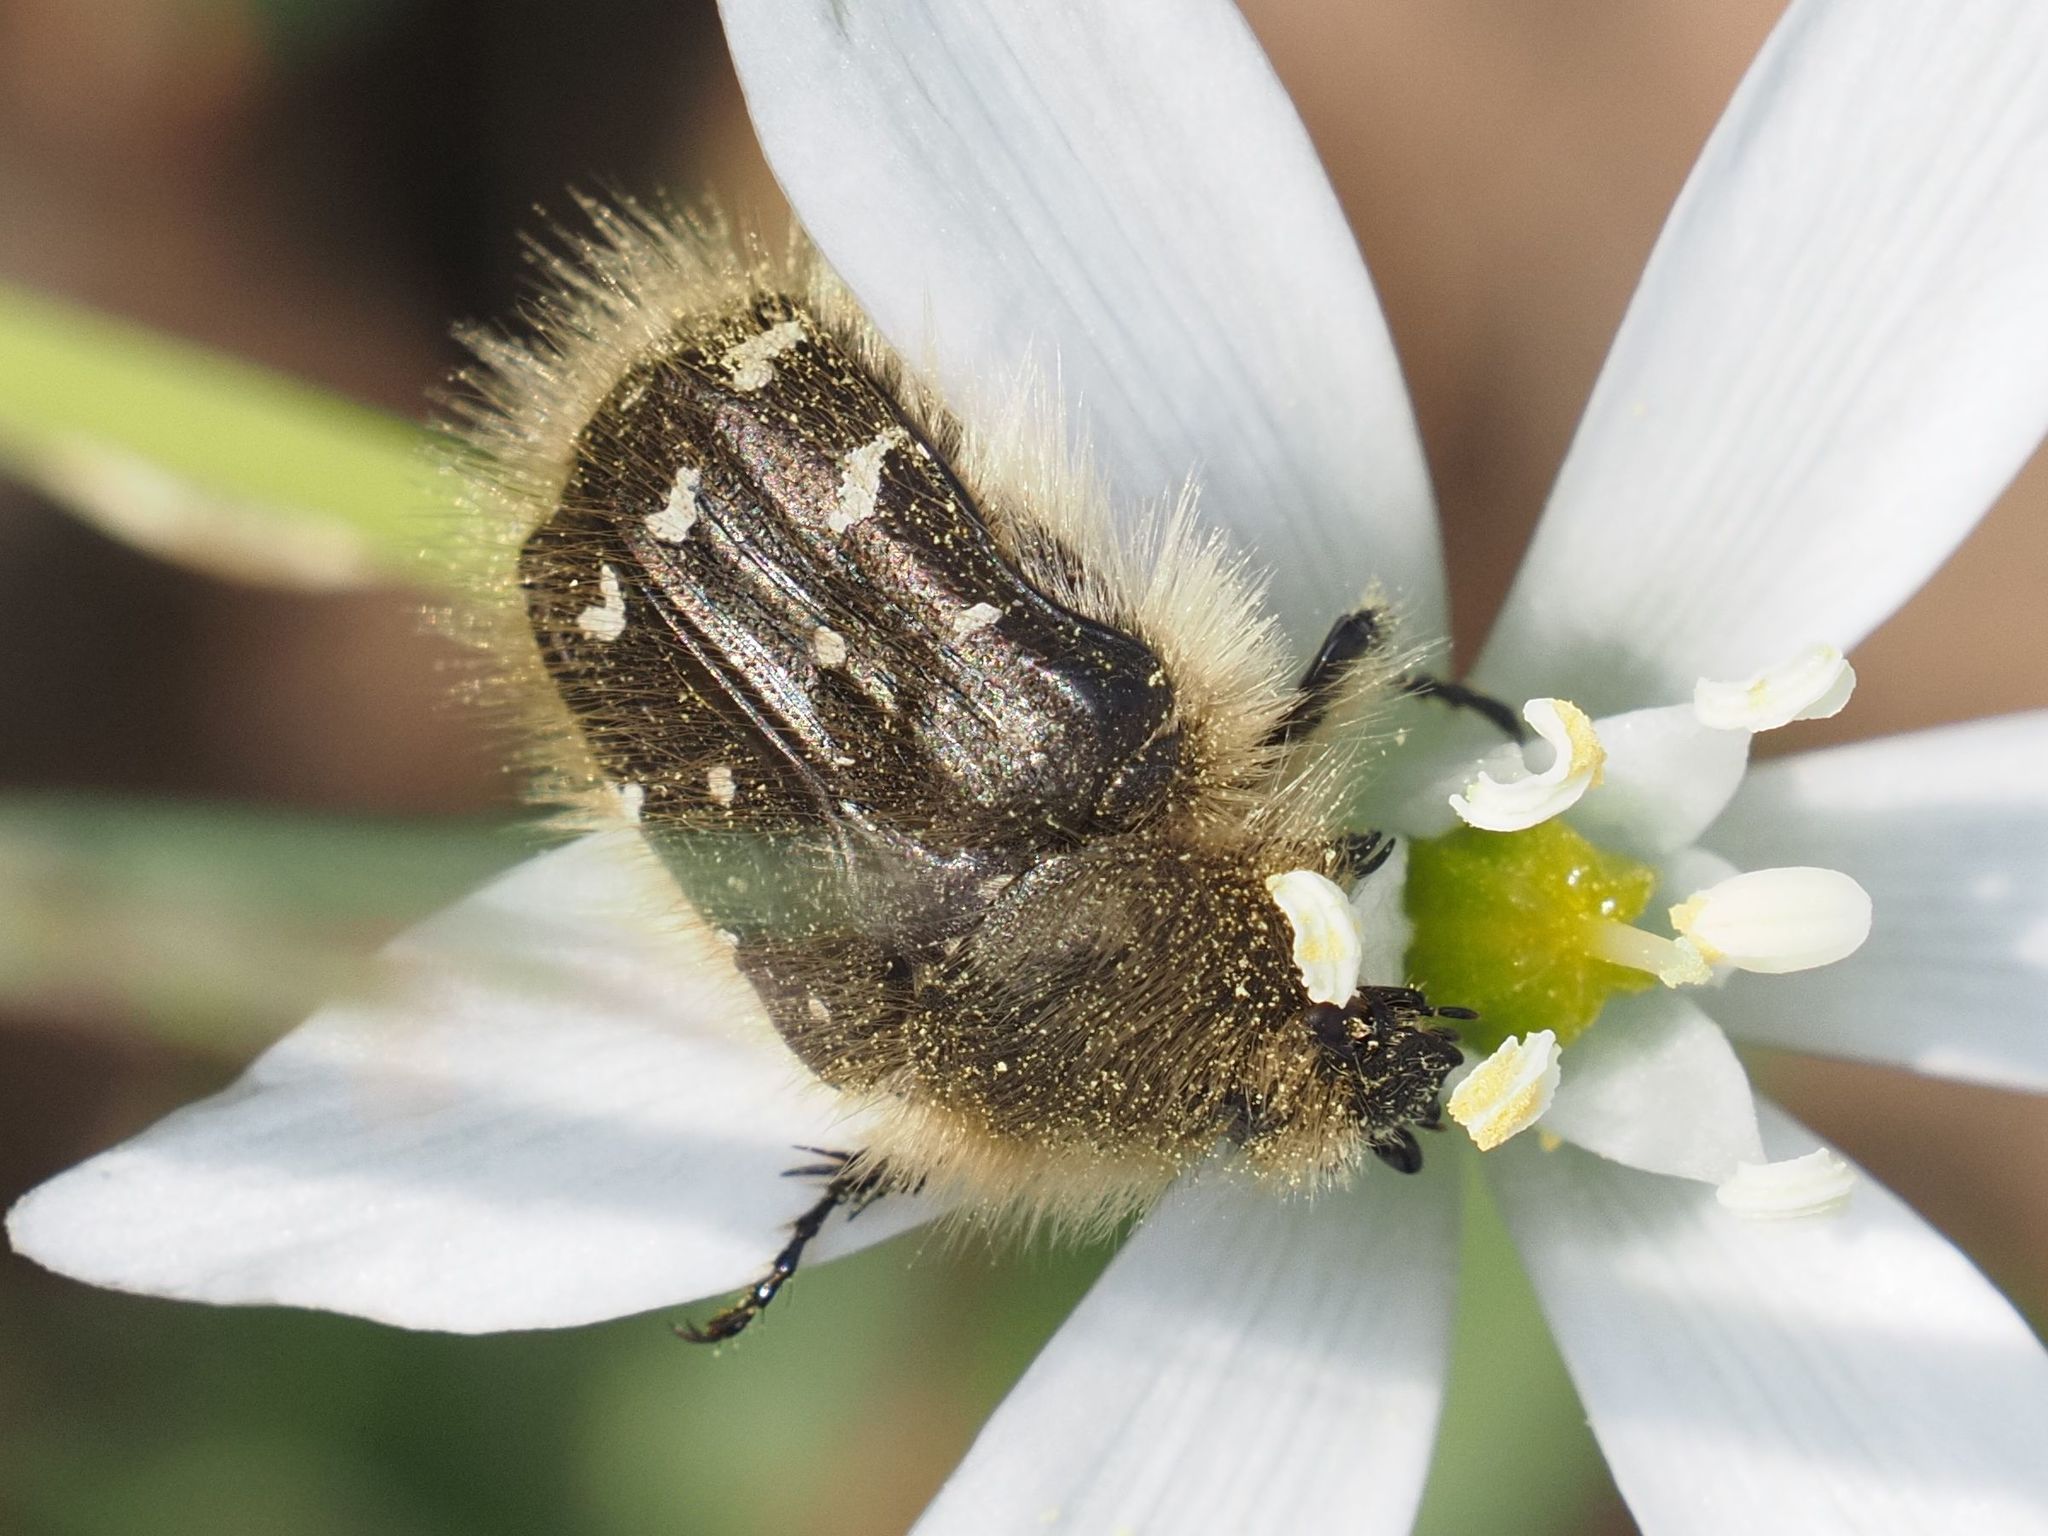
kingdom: Animalia
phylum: Arthropoda
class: Insecta
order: Coleoptera
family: Scarabaeidae
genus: Tropinota
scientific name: Tropinota hirta
